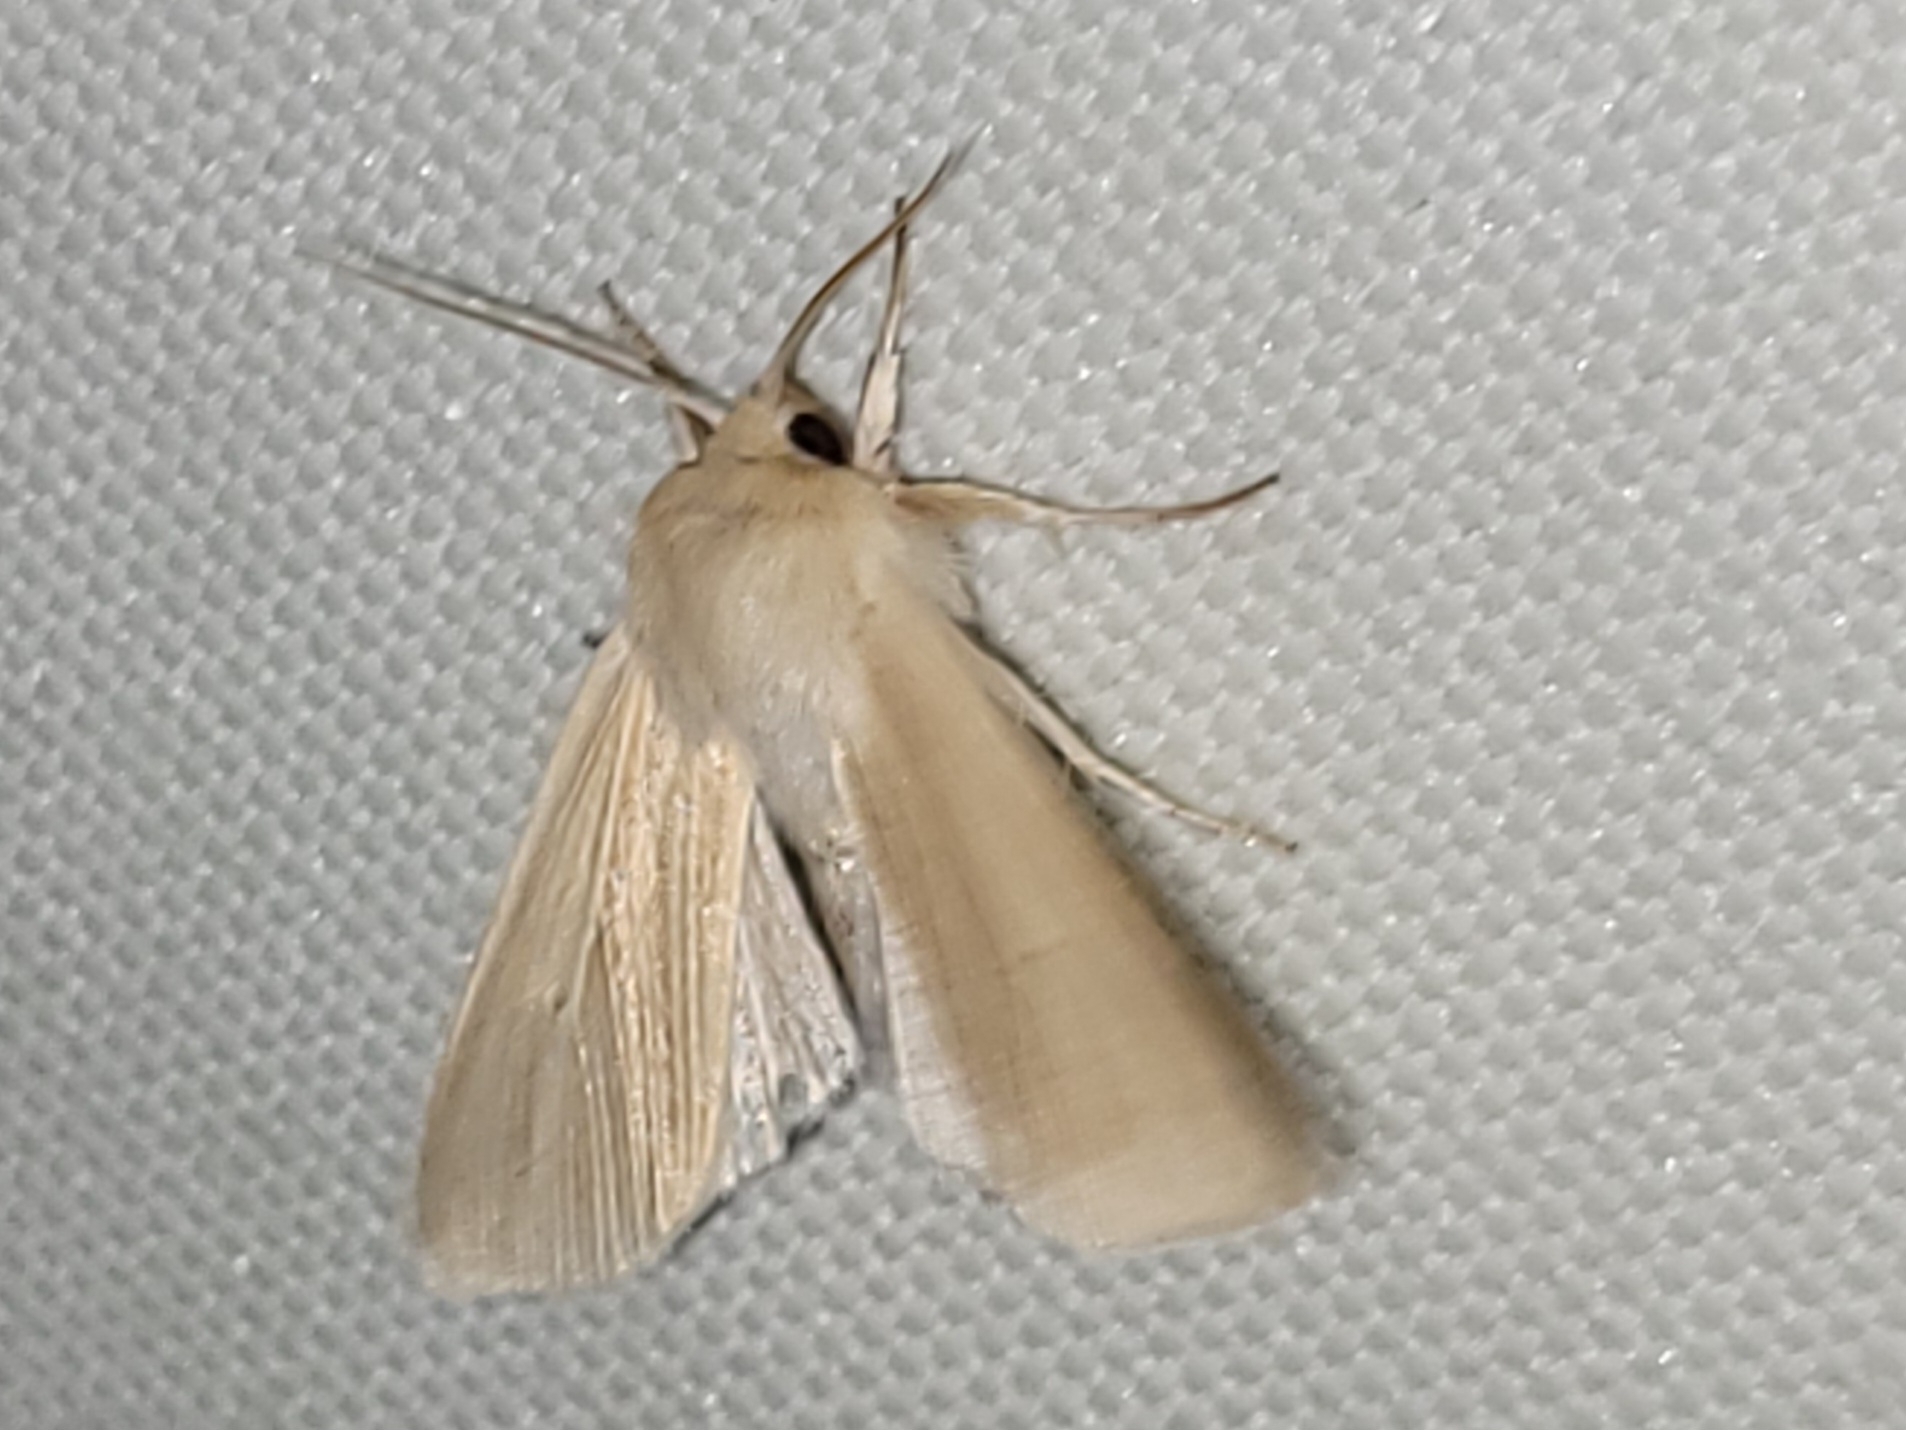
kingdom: Animalia
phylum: Arthropoda
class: Insecta
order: Lepidoptera
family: Noctuidae
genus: Mythimna
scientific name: Mythimna pallens
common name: Common wainscot
